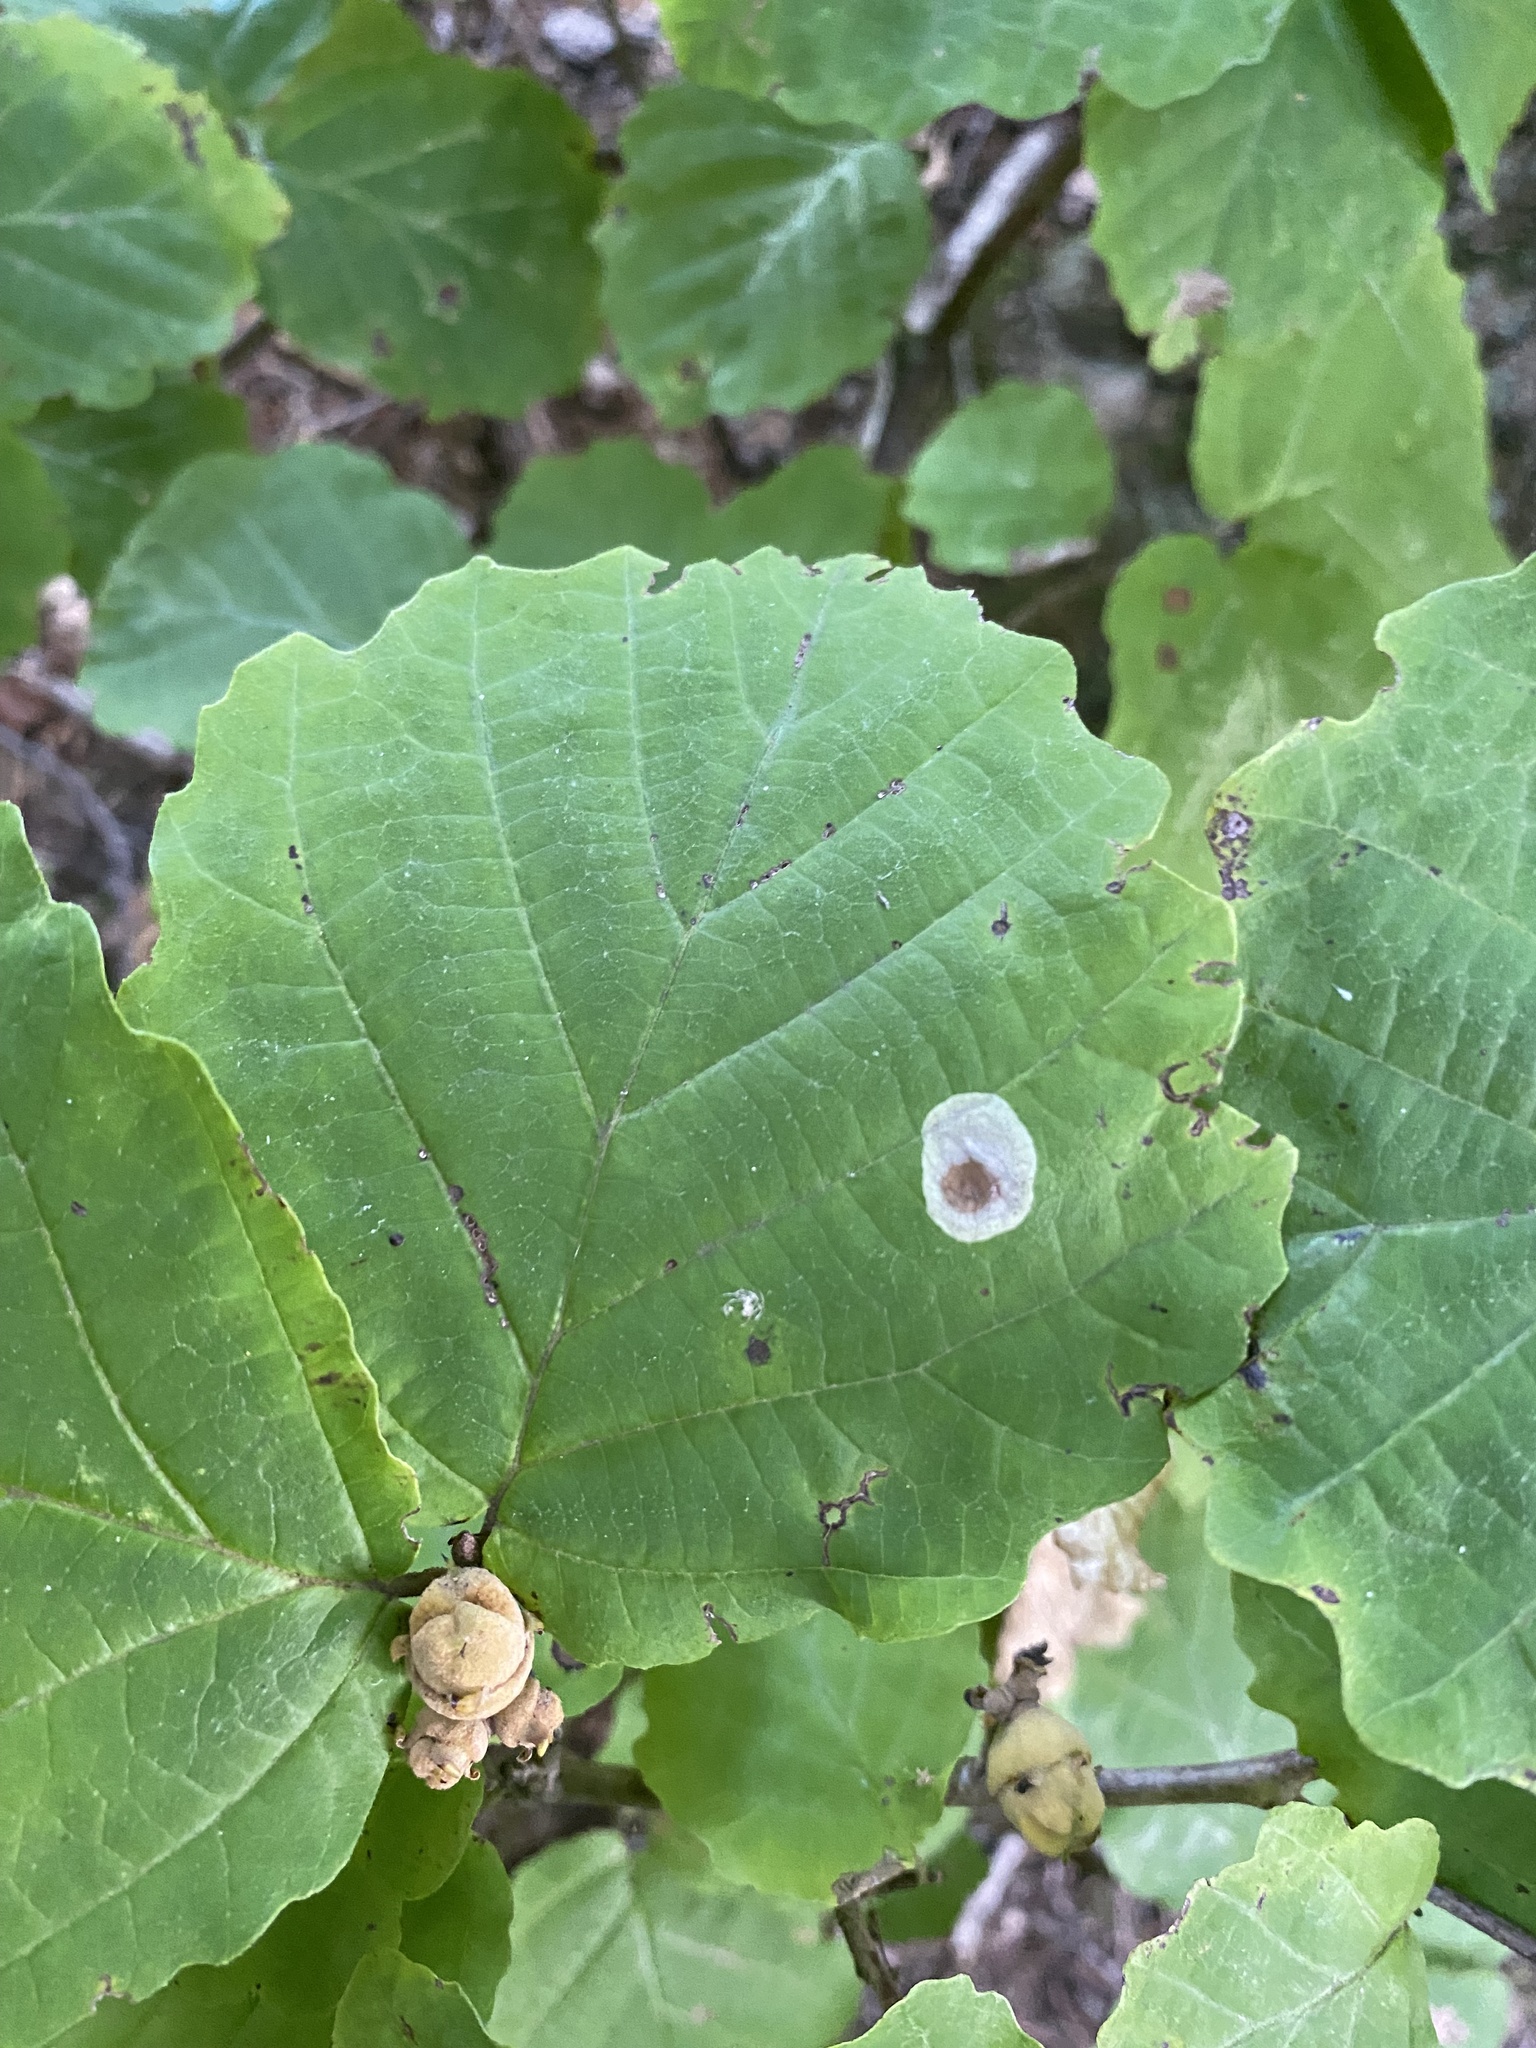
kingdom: Plantae
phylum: Tracheophyta
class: Magnoliopsida
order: Saxifragales
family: Hamamelidaceae
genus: Hamamelis
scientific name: Hamamelis virginiana
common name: Witch-hazel
